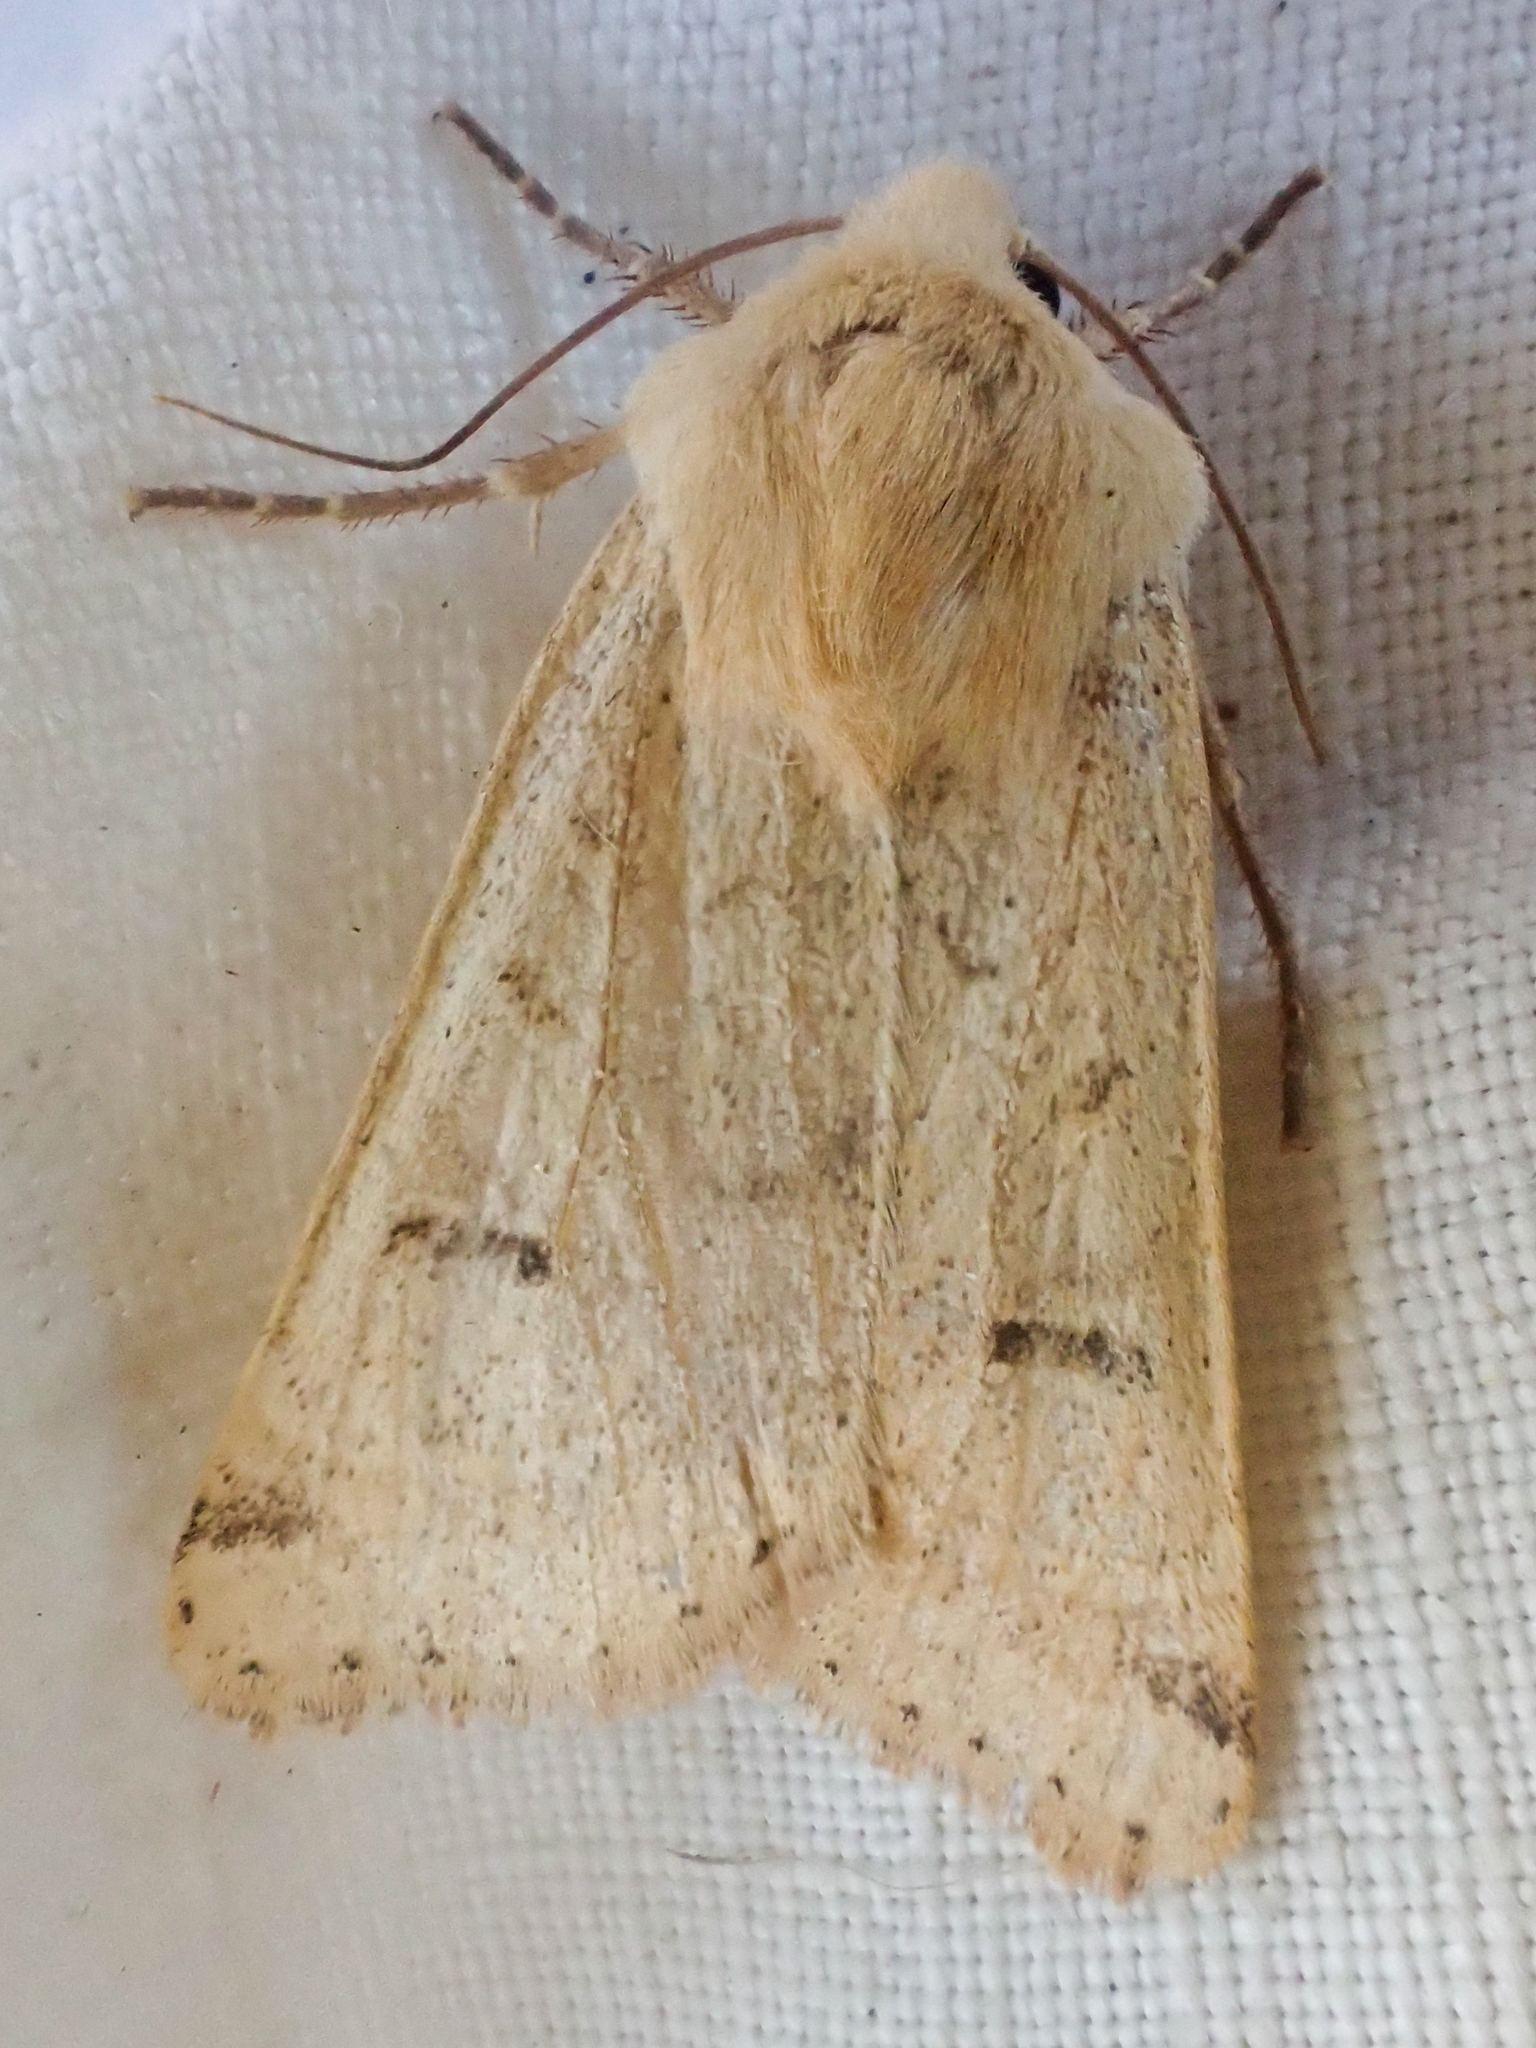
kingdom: Animalia
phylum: Arthropoda
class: Insecta
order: Lepidoptera
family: Noctuidae
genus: Dichagyris
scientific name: Dichagyris variabilis
